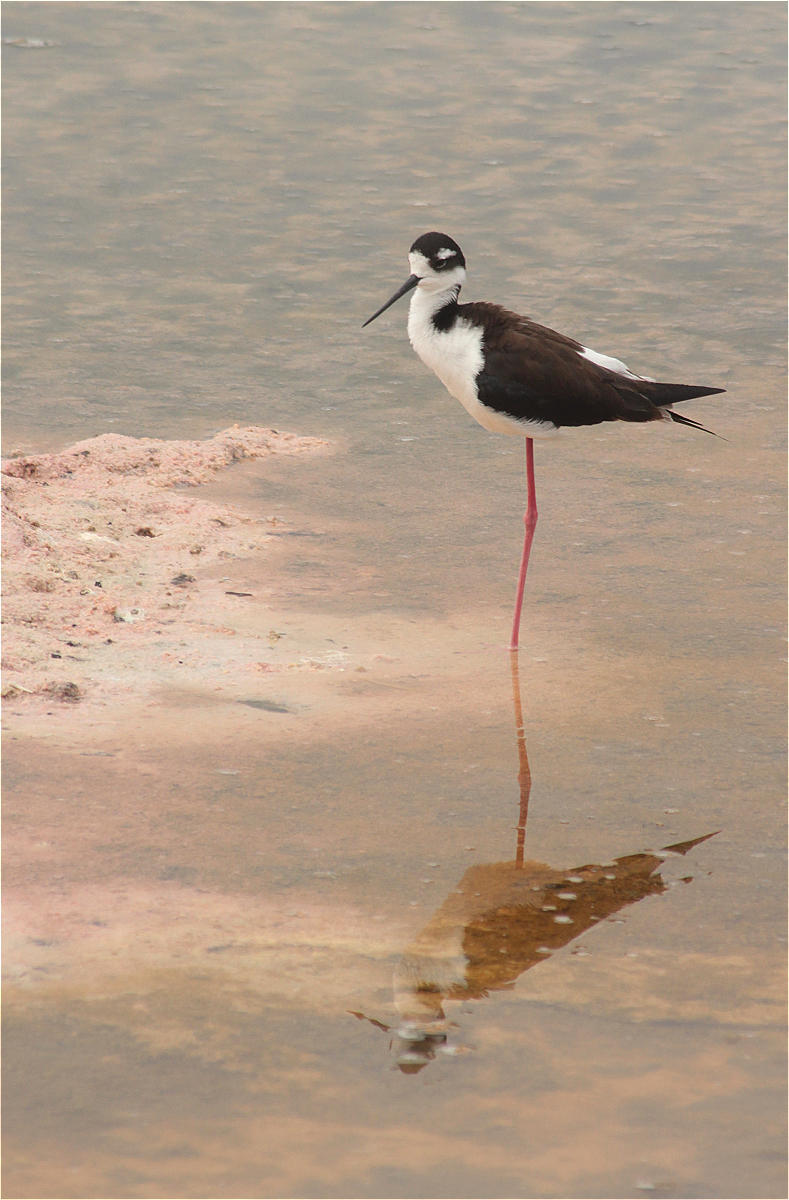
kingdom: Animalia
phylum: Chordata
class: Aves
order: Charadriiformes
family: Recurvirostridae
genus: Himantopus
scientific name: Himantopus mexicanus
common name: Black-necked stilt
